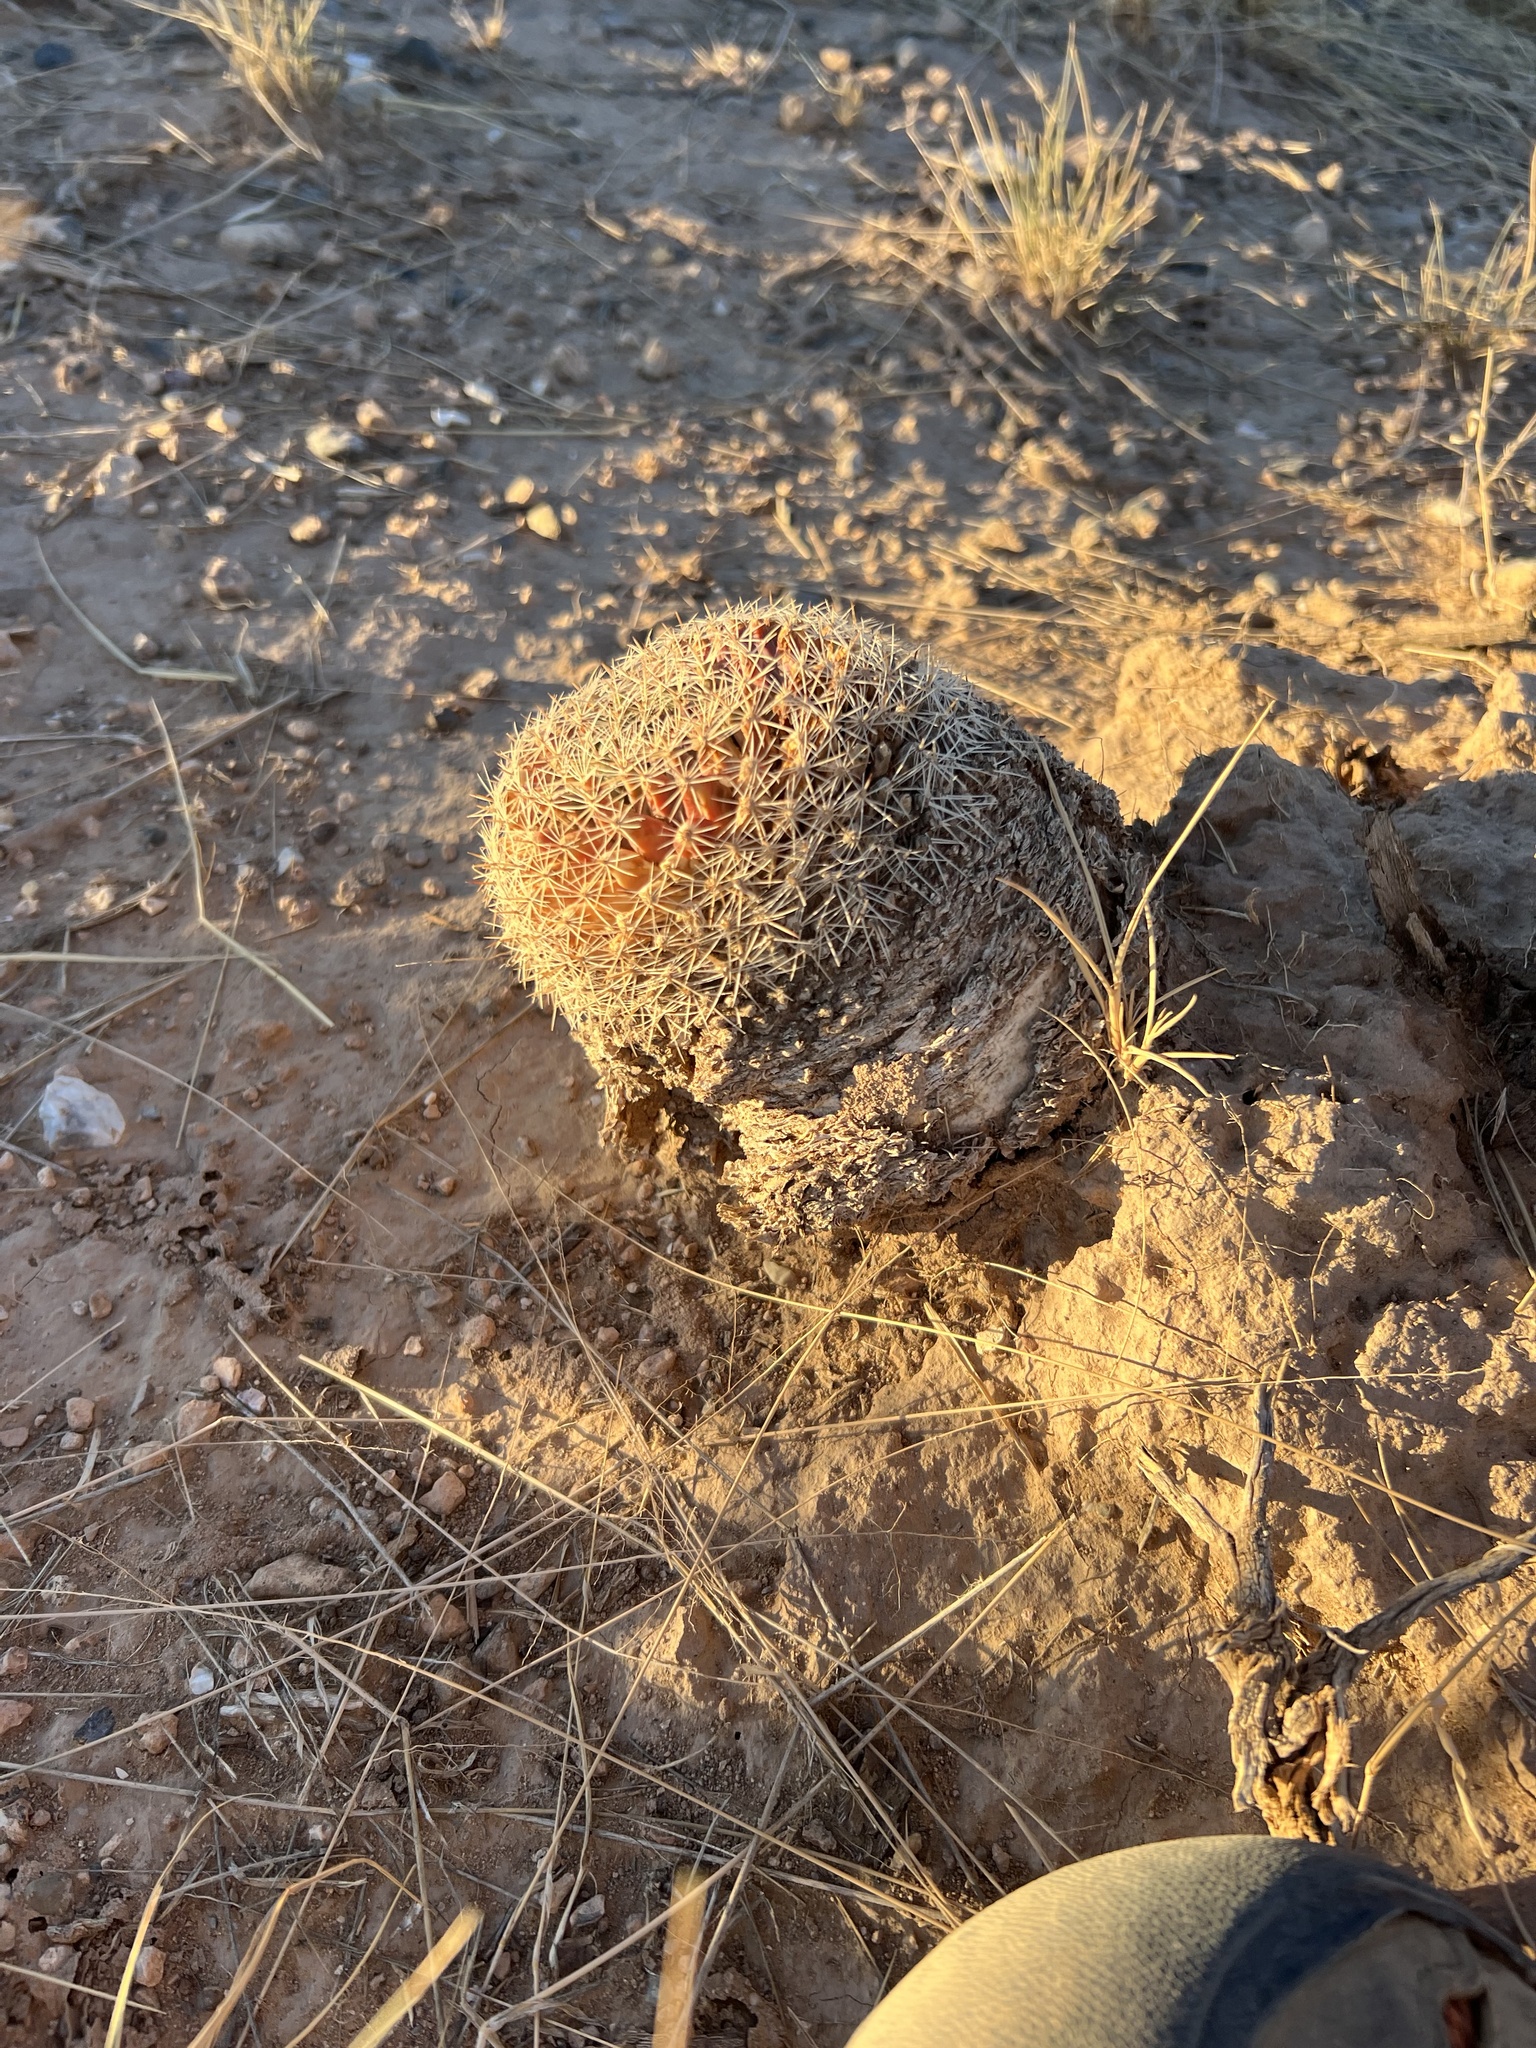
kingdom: Plantae
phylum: Tracheophyta
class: Magnoliopsida
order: Caryophyllales
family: Cactaceae
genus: Mammillaria
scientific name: Mammillaria heyderi
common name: Little nipple cactus
